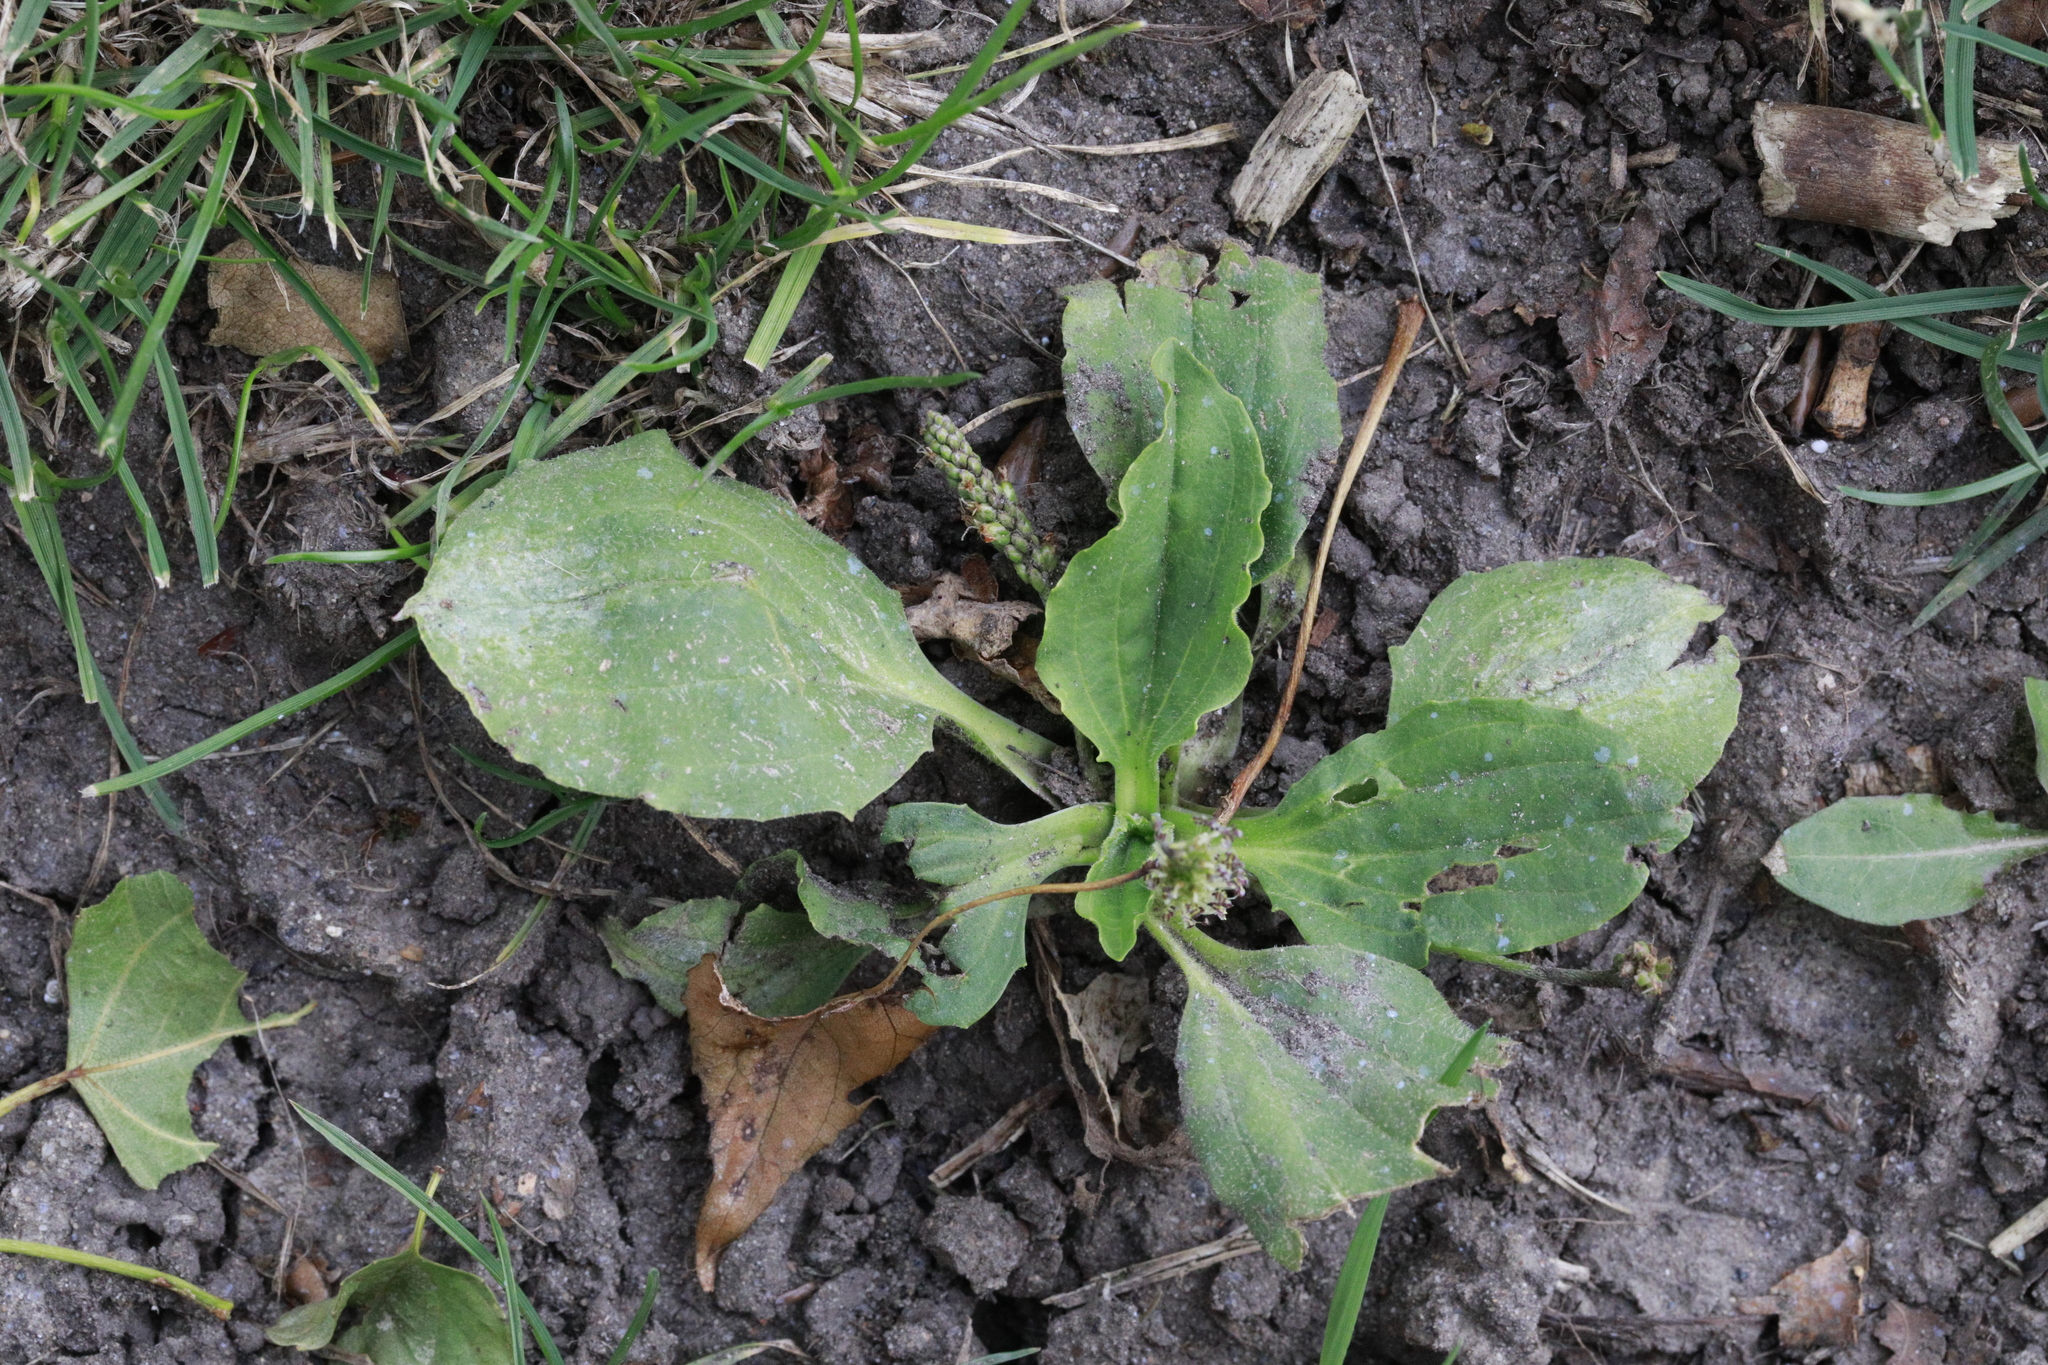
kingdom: Fungi
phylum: Ascomycota
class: Leotiomycetes
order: Helotiales
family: Erysiphaceae
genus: Golovinomyces
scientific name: Golovinomyces sordidus
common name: Plantain mildew
